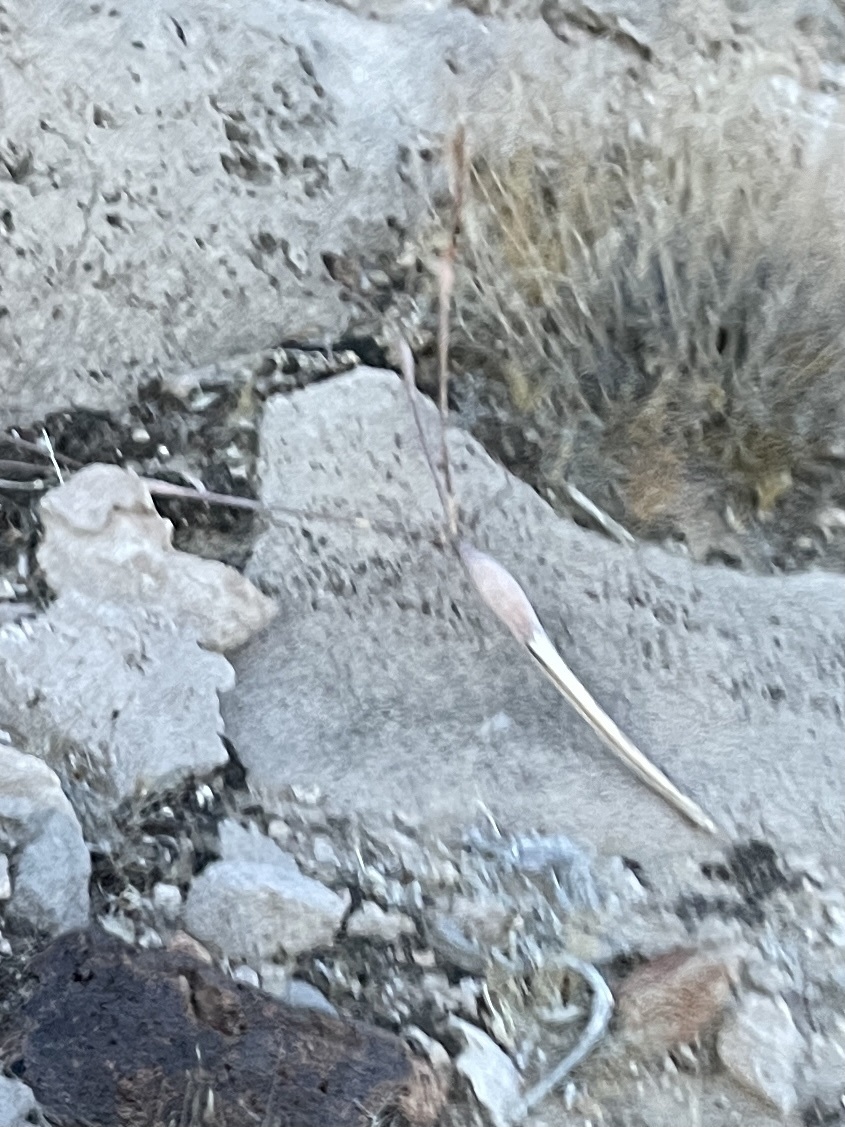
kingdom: Plantae
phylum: Tracheophyta
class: Magnoliopsida
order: Caryophyllales
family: Polygonaceae
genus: Eriogonum
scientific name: Eriogonum inflatum
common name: Desert trumpet
